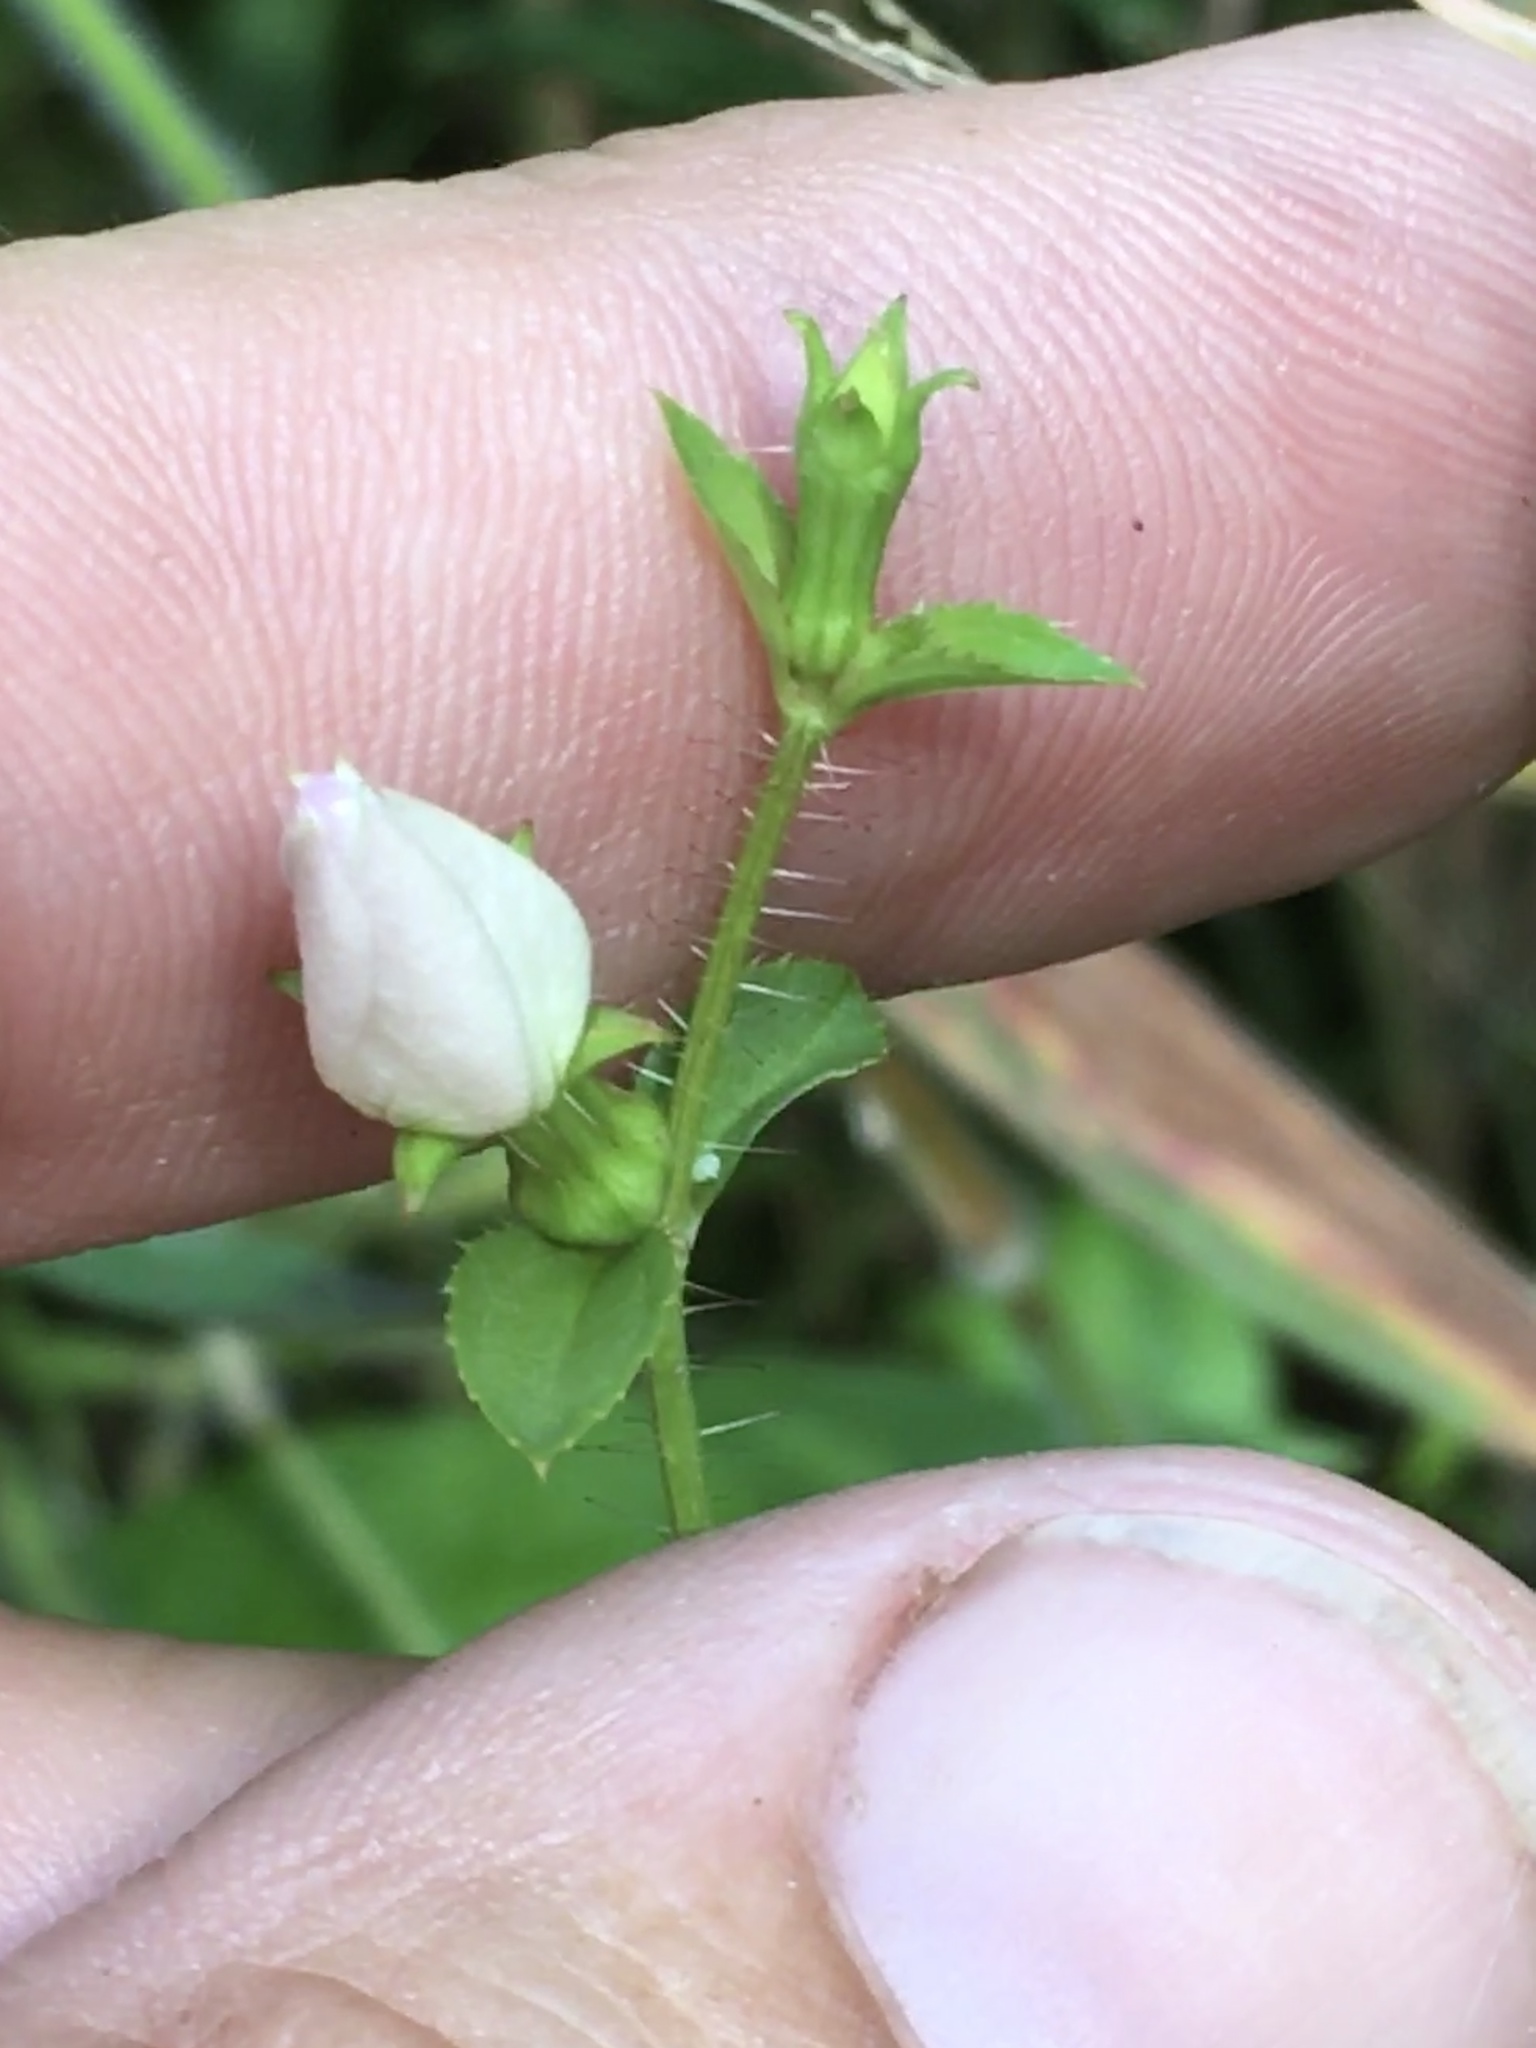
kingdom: Plantae
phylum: Tracheophyta
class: Magnoliopsida
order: Myrtales
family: Melastomataceae
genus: Rhexia
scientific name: Rhexia mariana
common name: Dull meadow-pitcher
